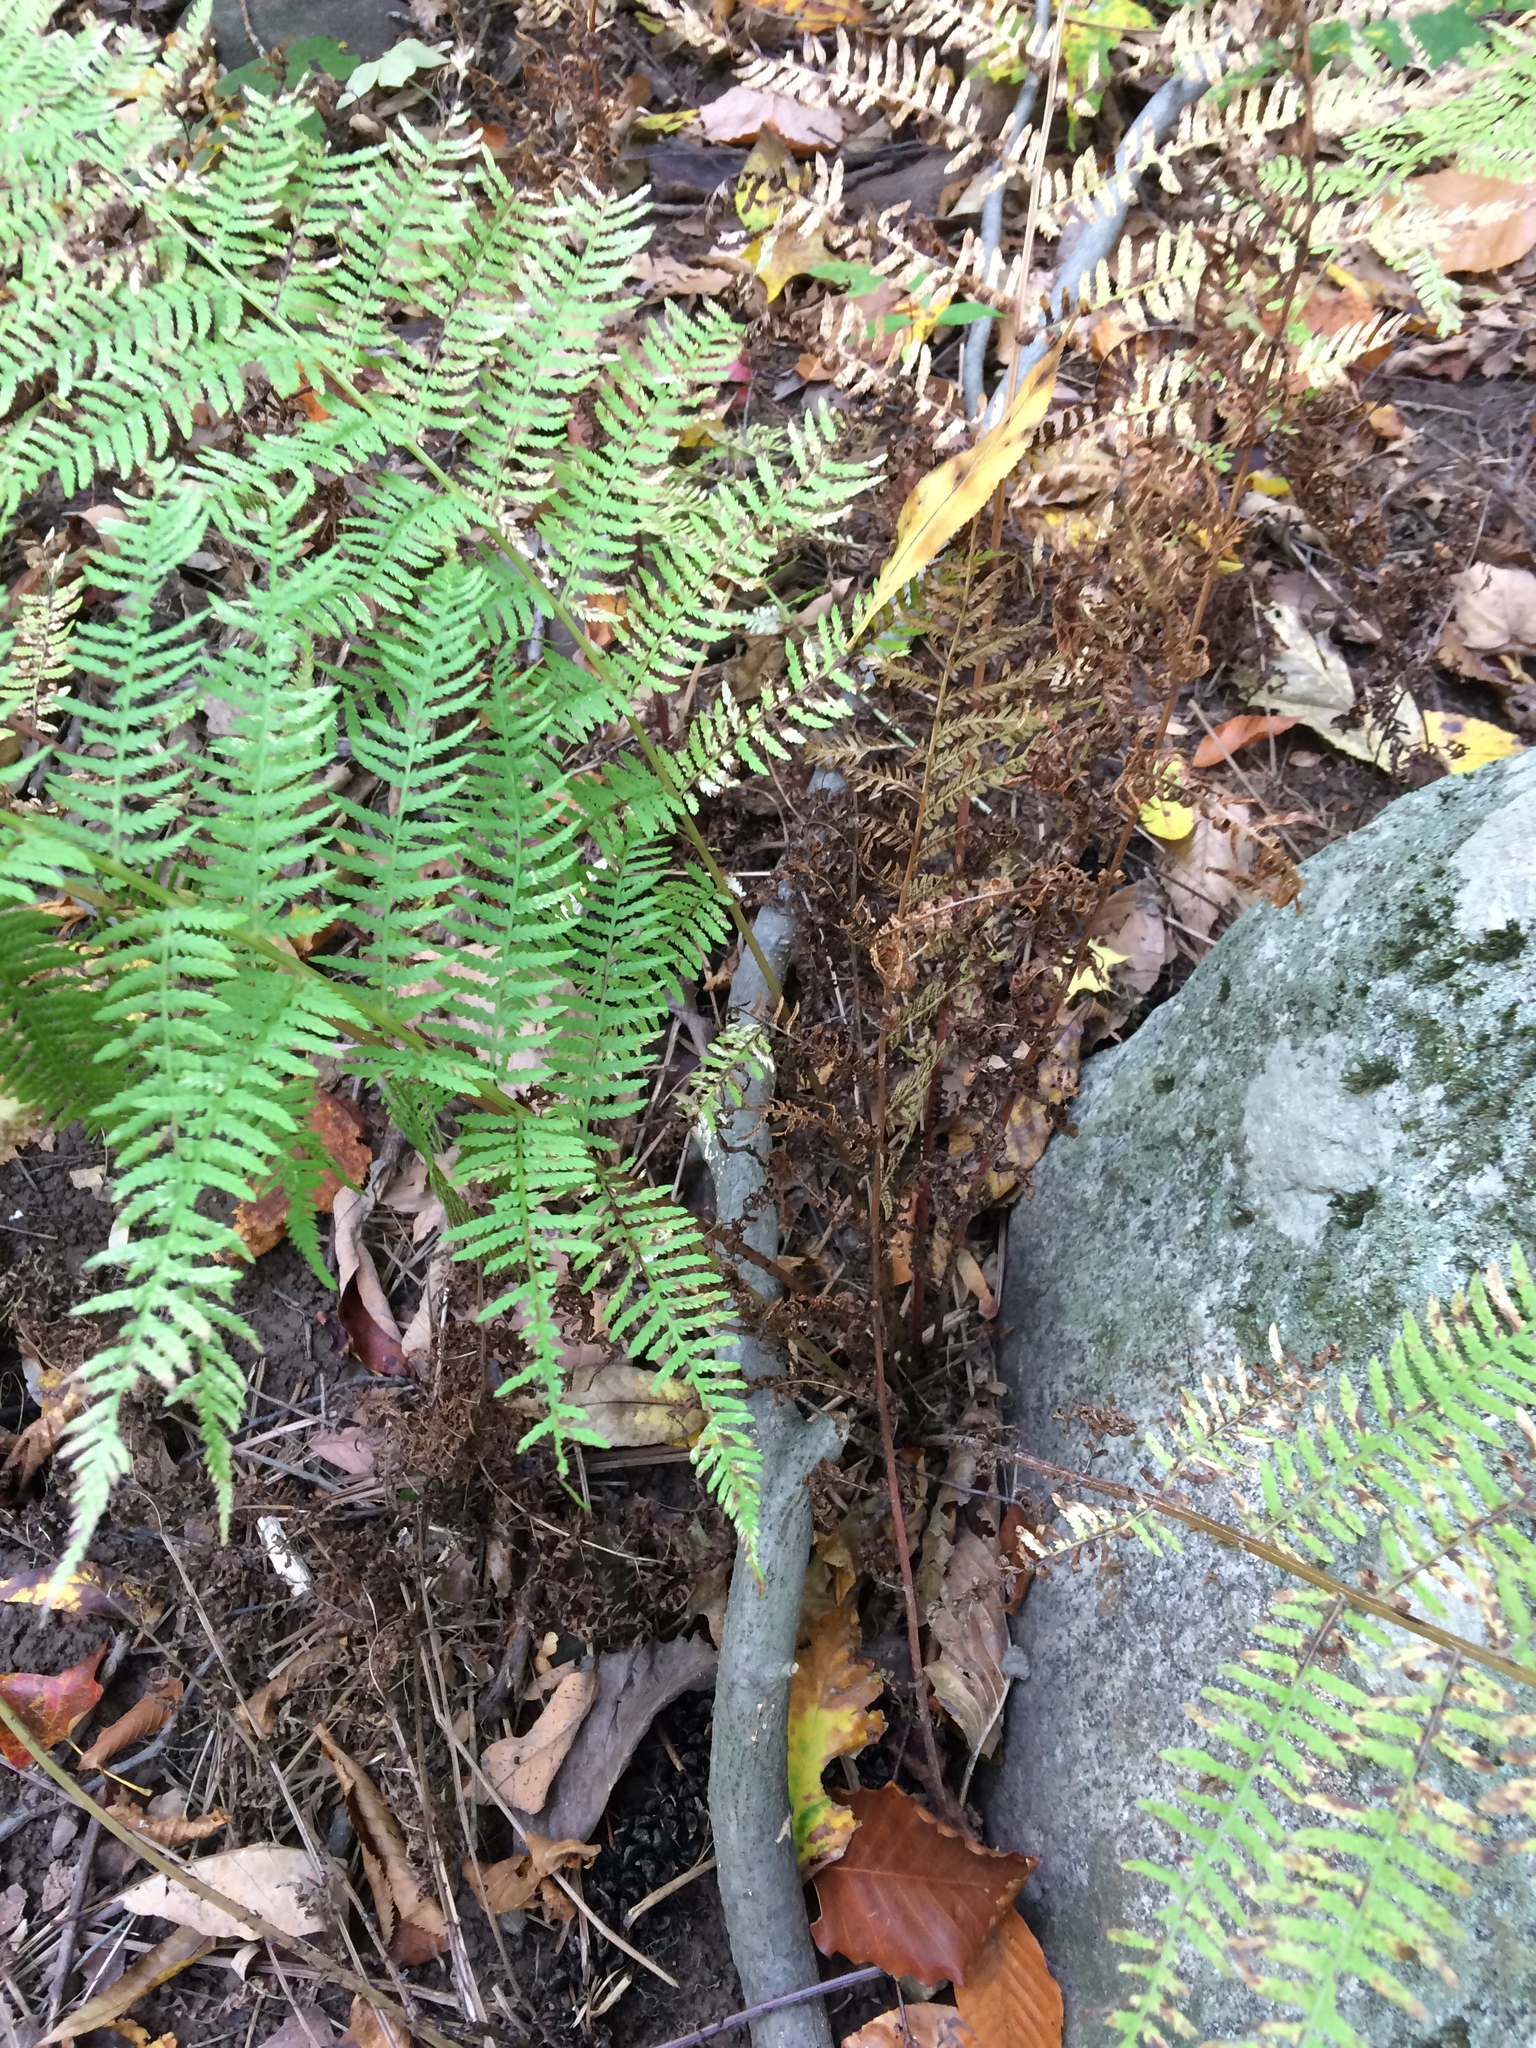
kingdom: Plantae
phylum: Tracheophyta
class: Polypodiopsida
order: Polypodiales
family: Athyriaceae
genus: Athyrium
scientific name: Athyrium angustum
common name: Northern lady fern
